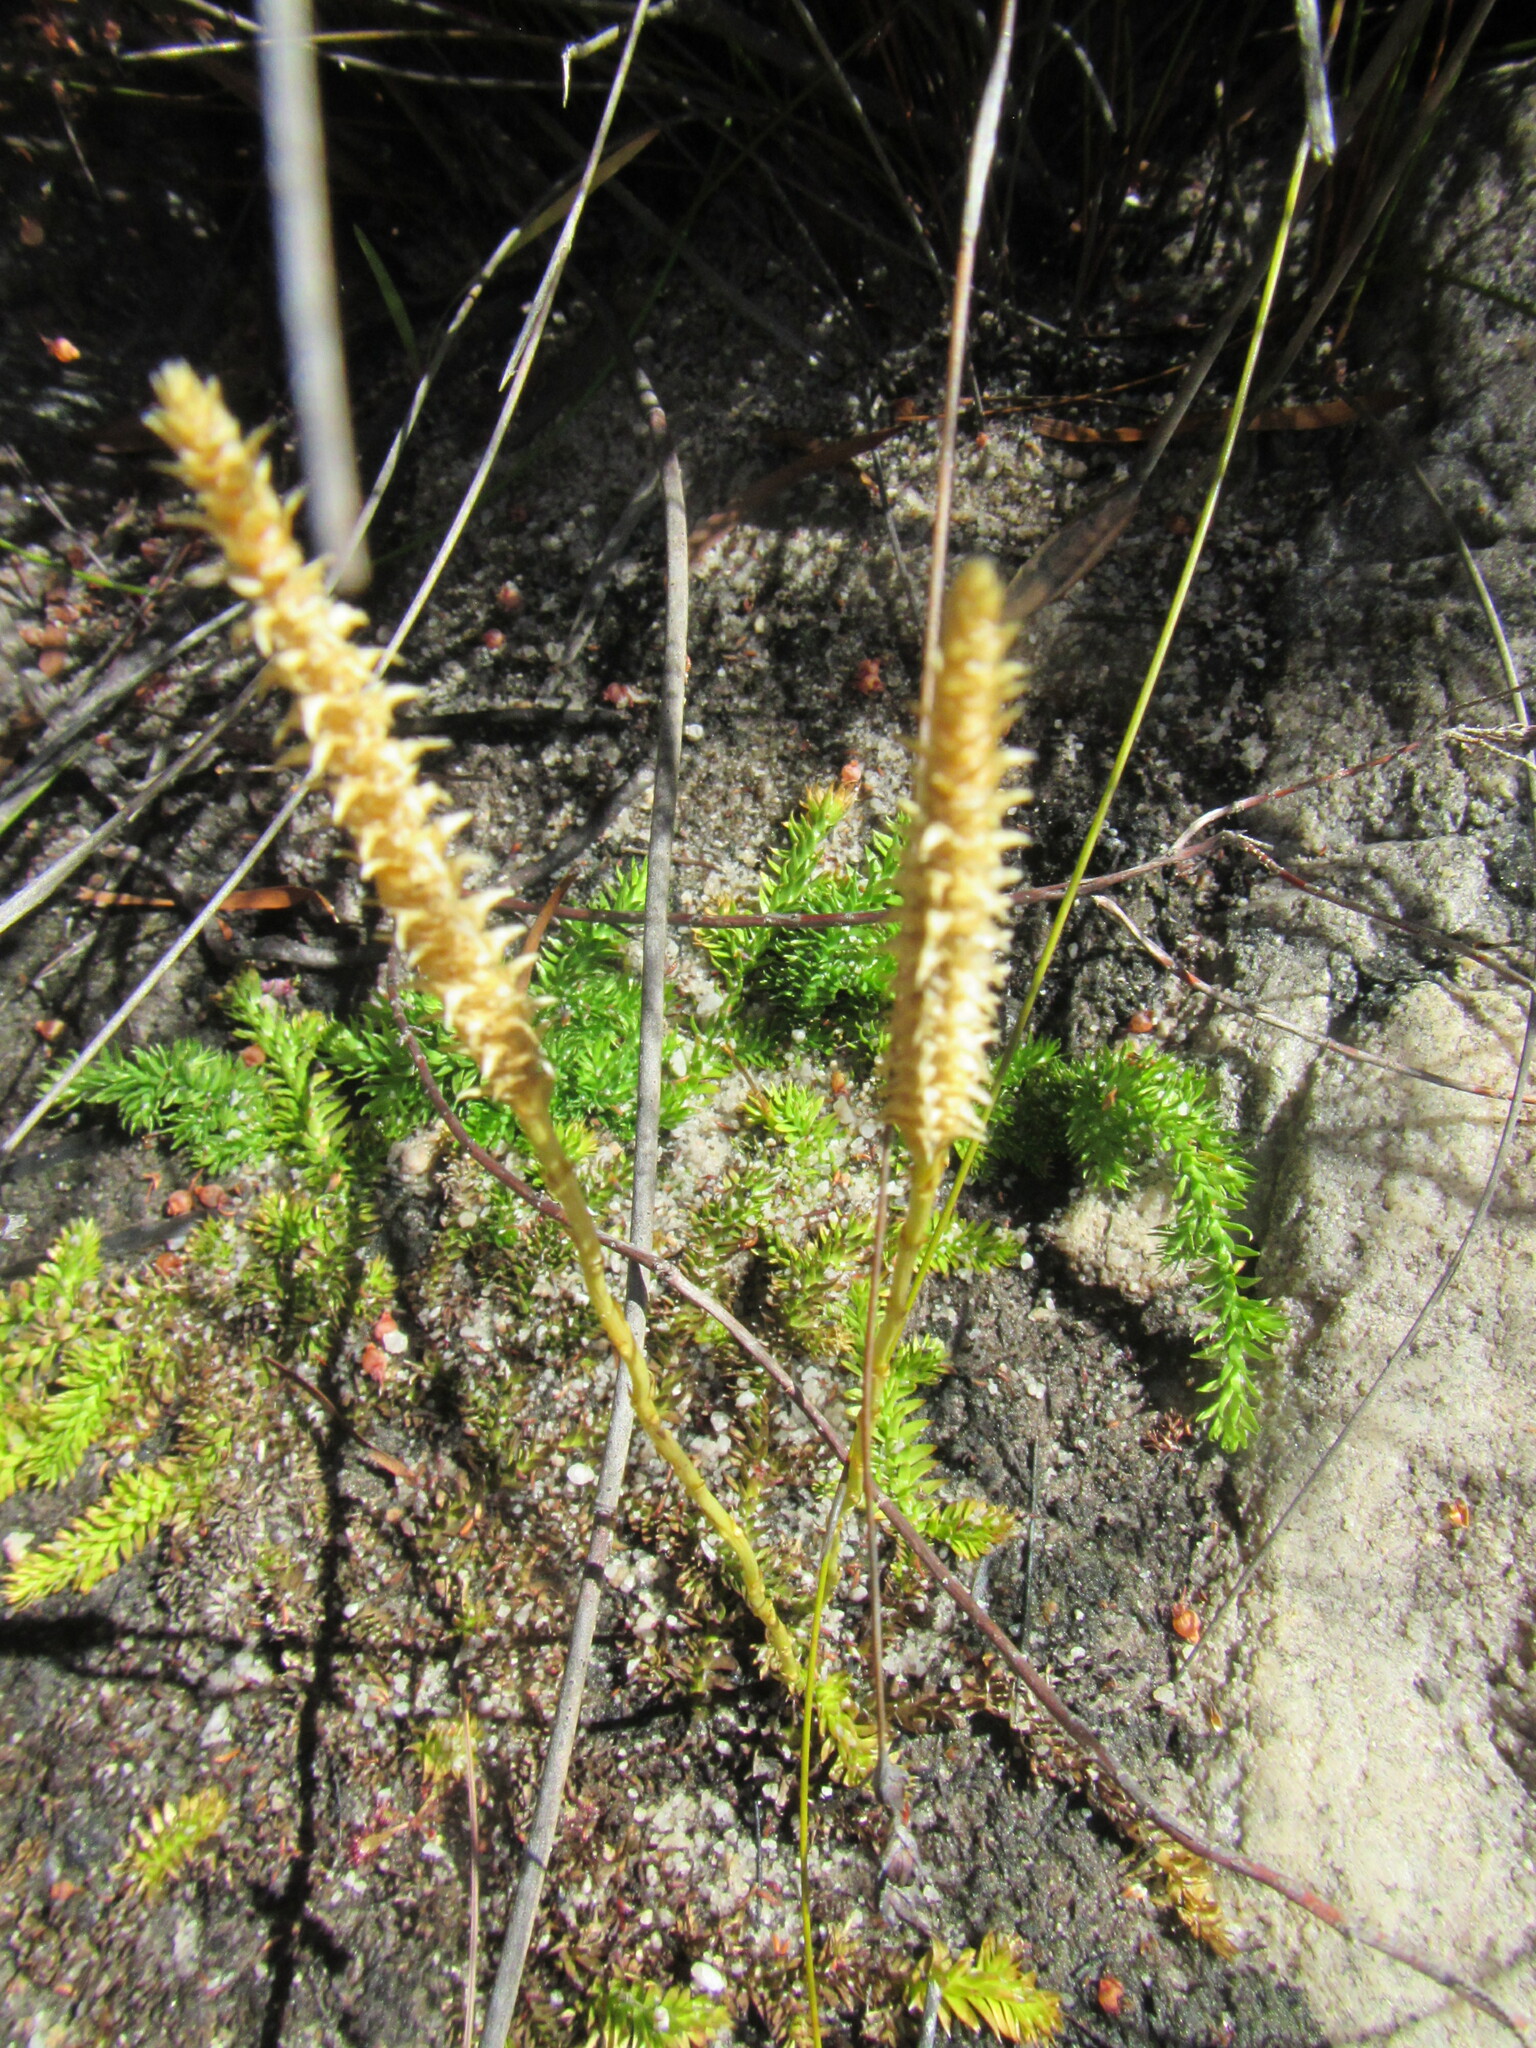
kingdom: Plantae
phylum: Tracheophyta
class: Lycopodiopsida
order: Lycopodiales
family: Lycopodiaceae
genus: Pseudolycopodiella
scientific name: Pseudolycopodiella caroliniana
